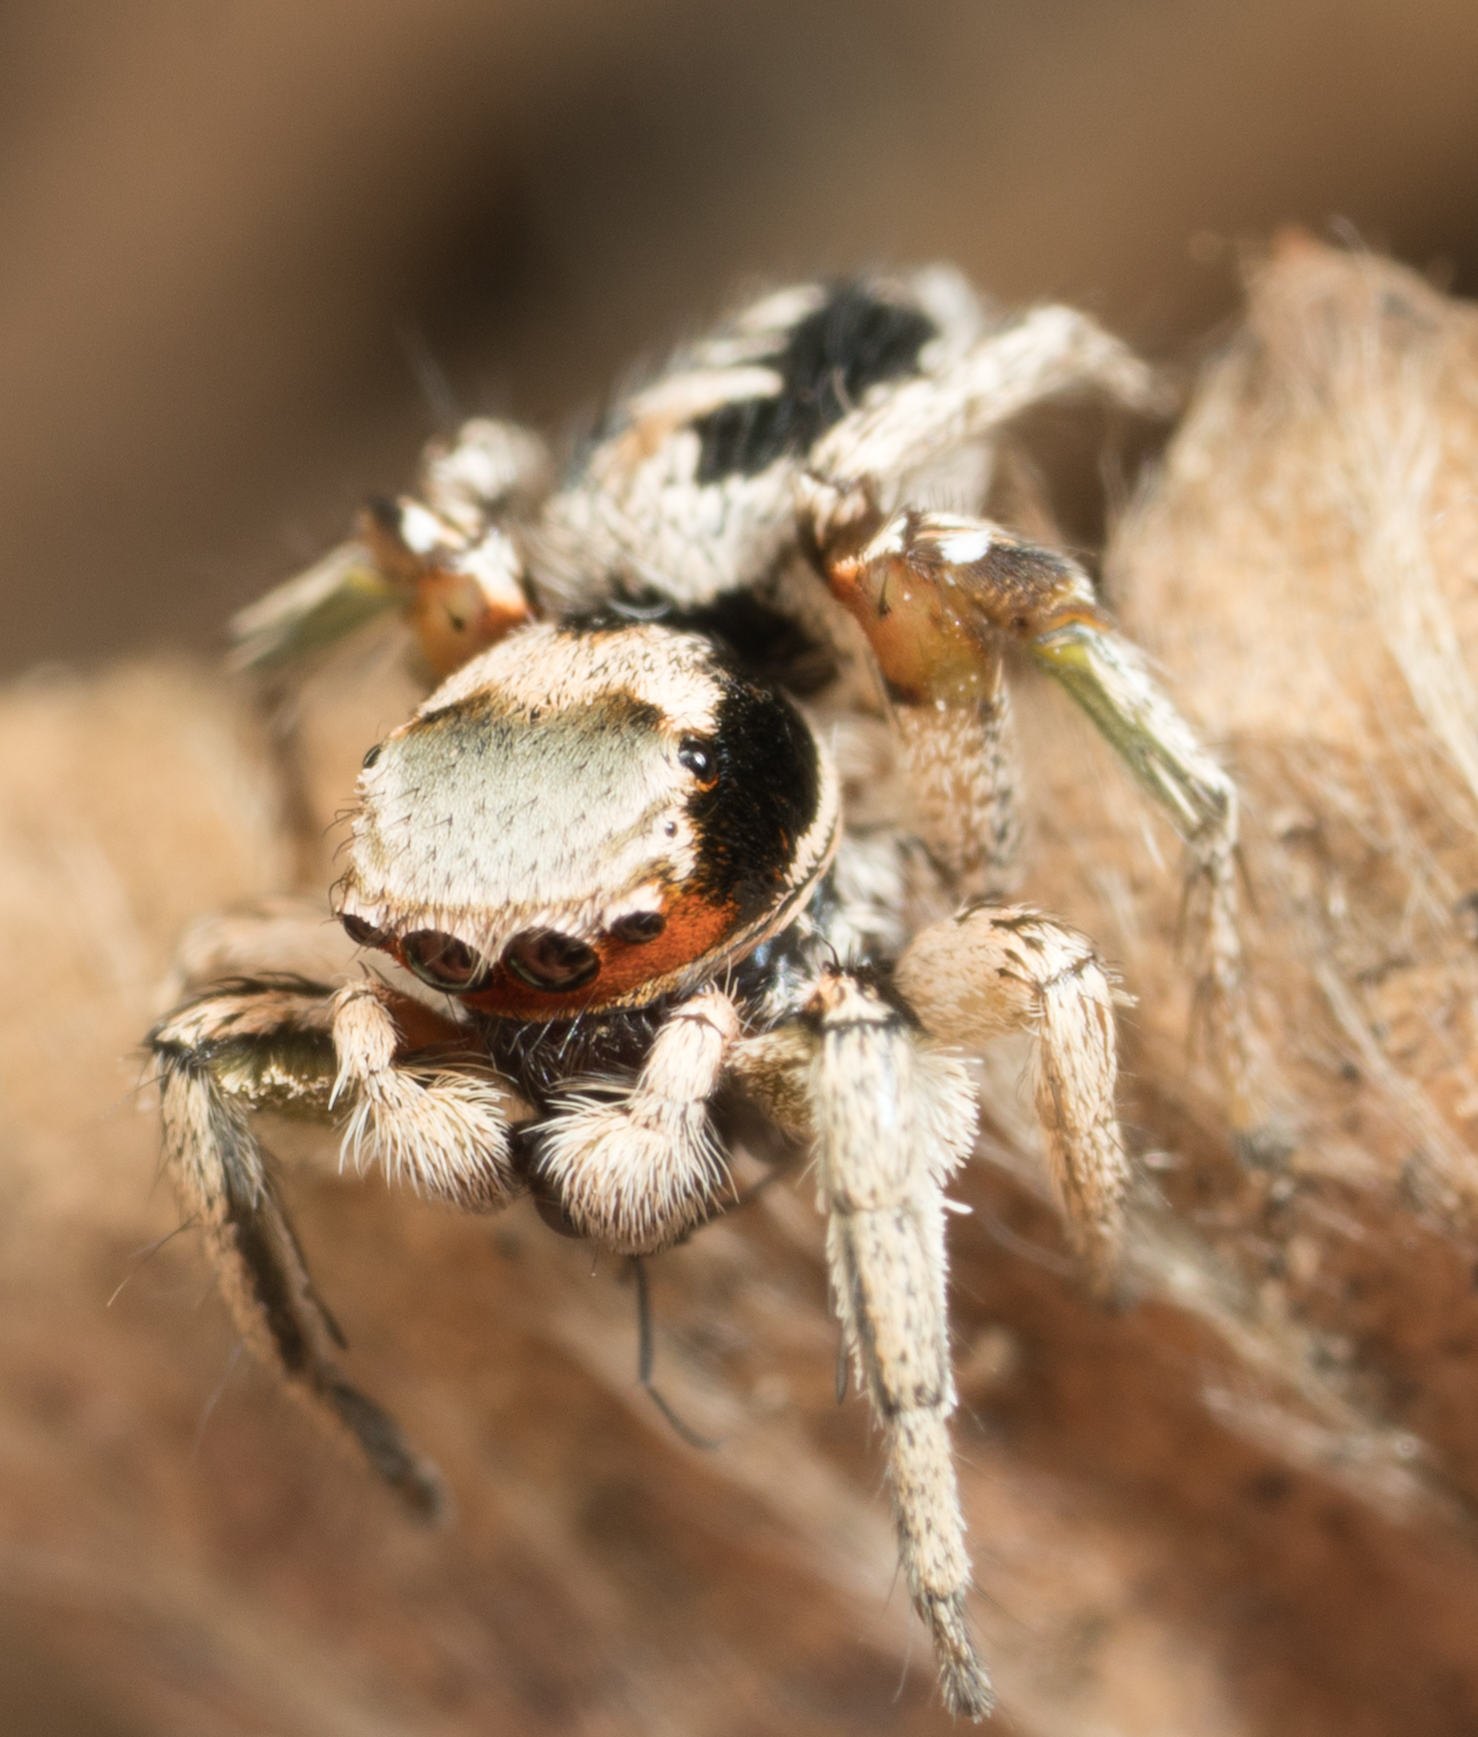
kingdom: Animalia
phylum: Arthropoda
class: Arachnida
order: Araneae
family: Salticidae
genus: Habronattus
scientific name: Habronattus pyrrithrix
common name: Jumping spider
